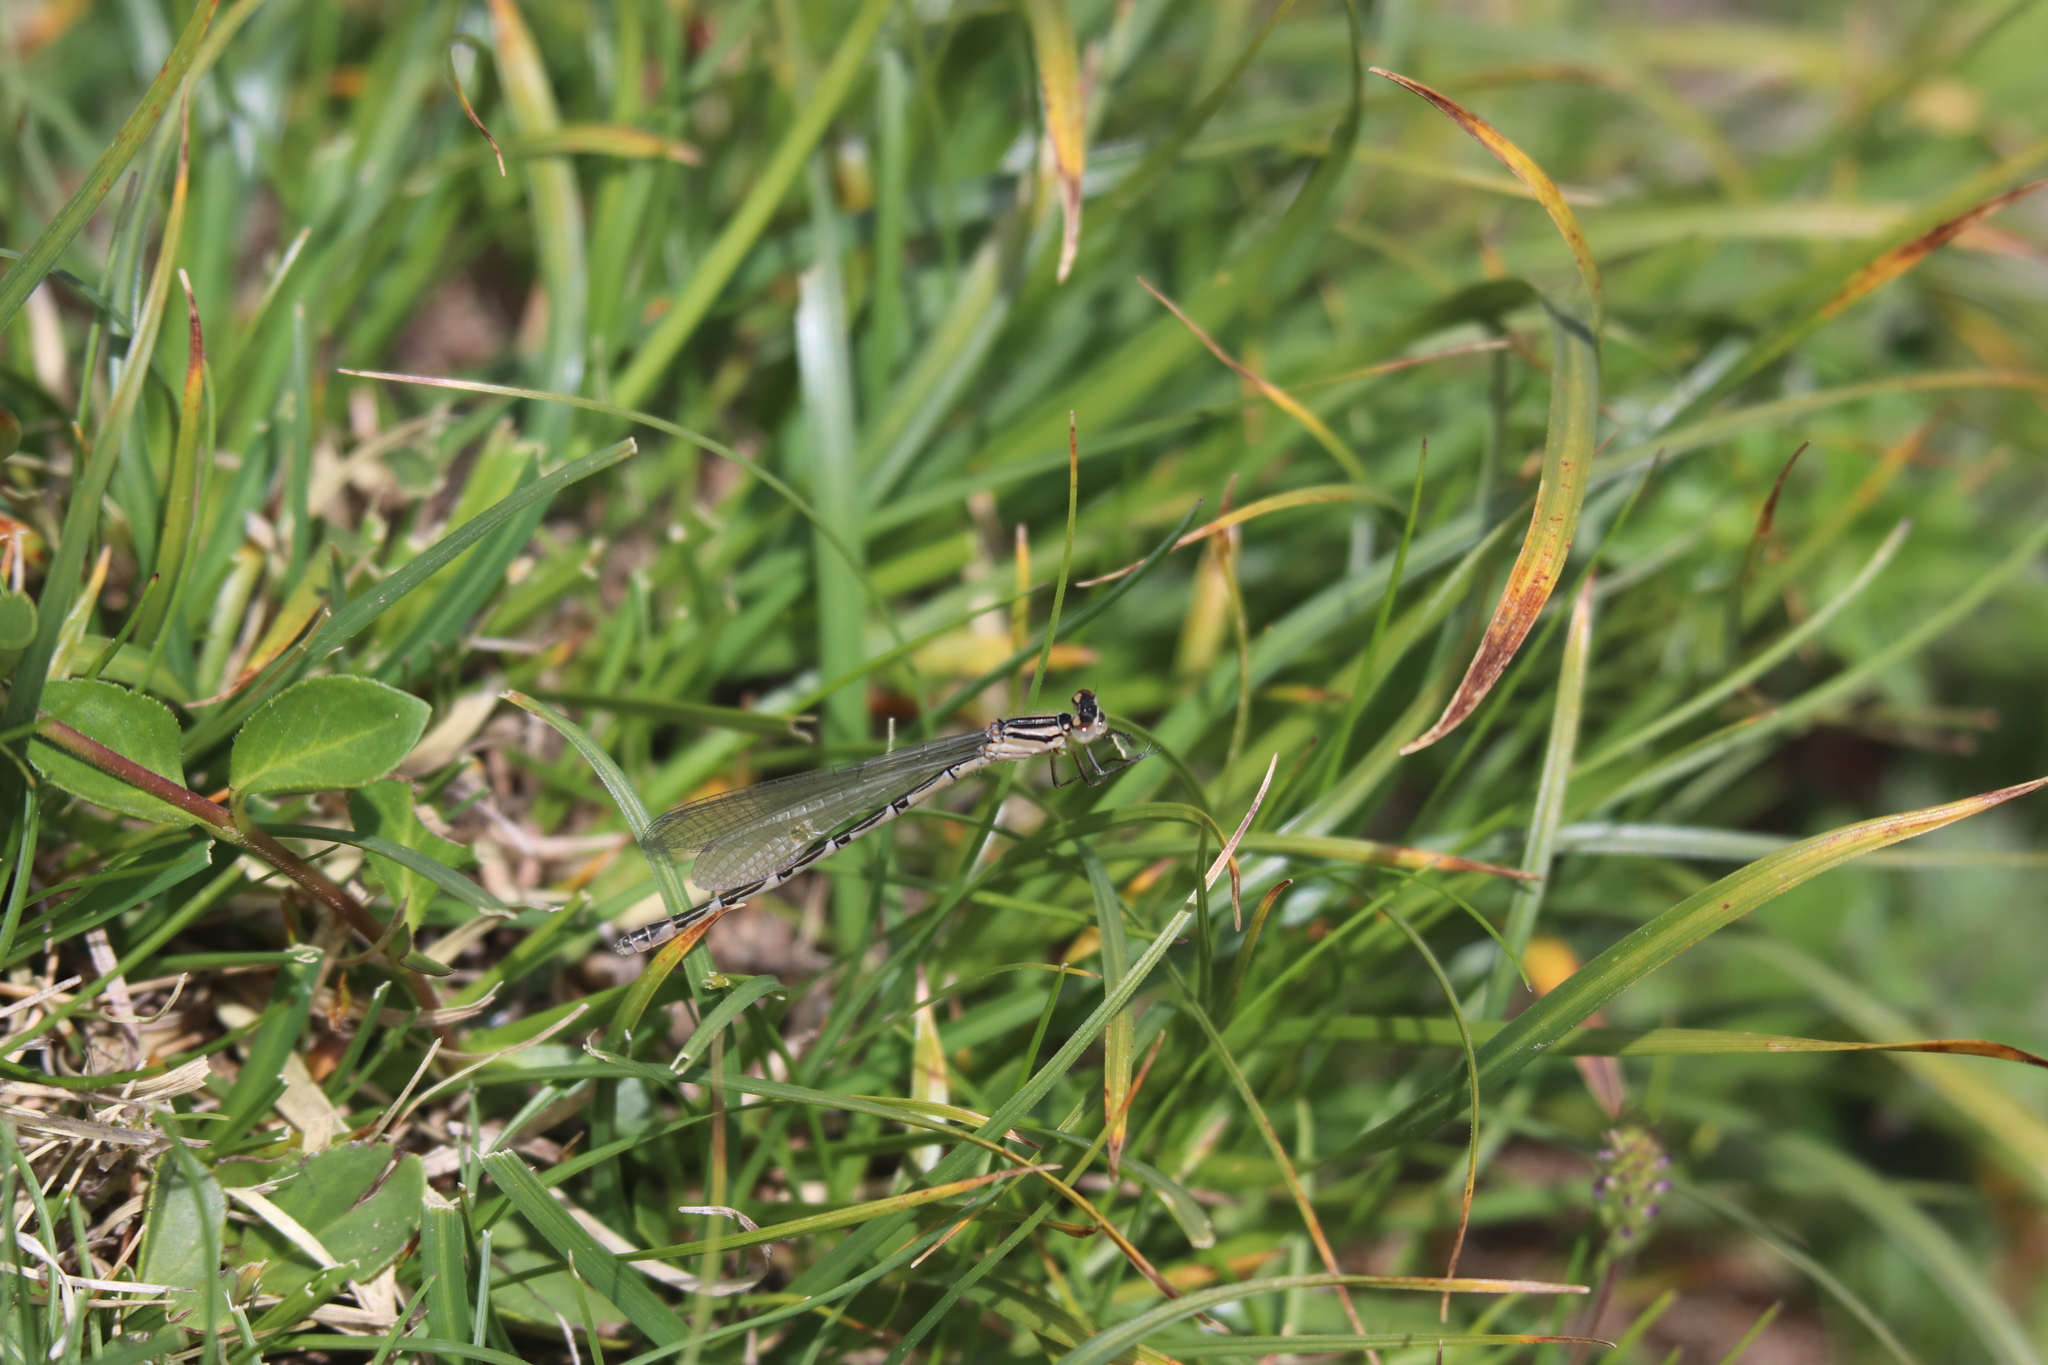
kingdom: Animalia
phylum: Arthropoda
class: Insecta
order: Odonata
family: Coenagrionidae
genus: Enallagma
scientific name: Enallagma cyathigerum
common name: Common blue damselfly
